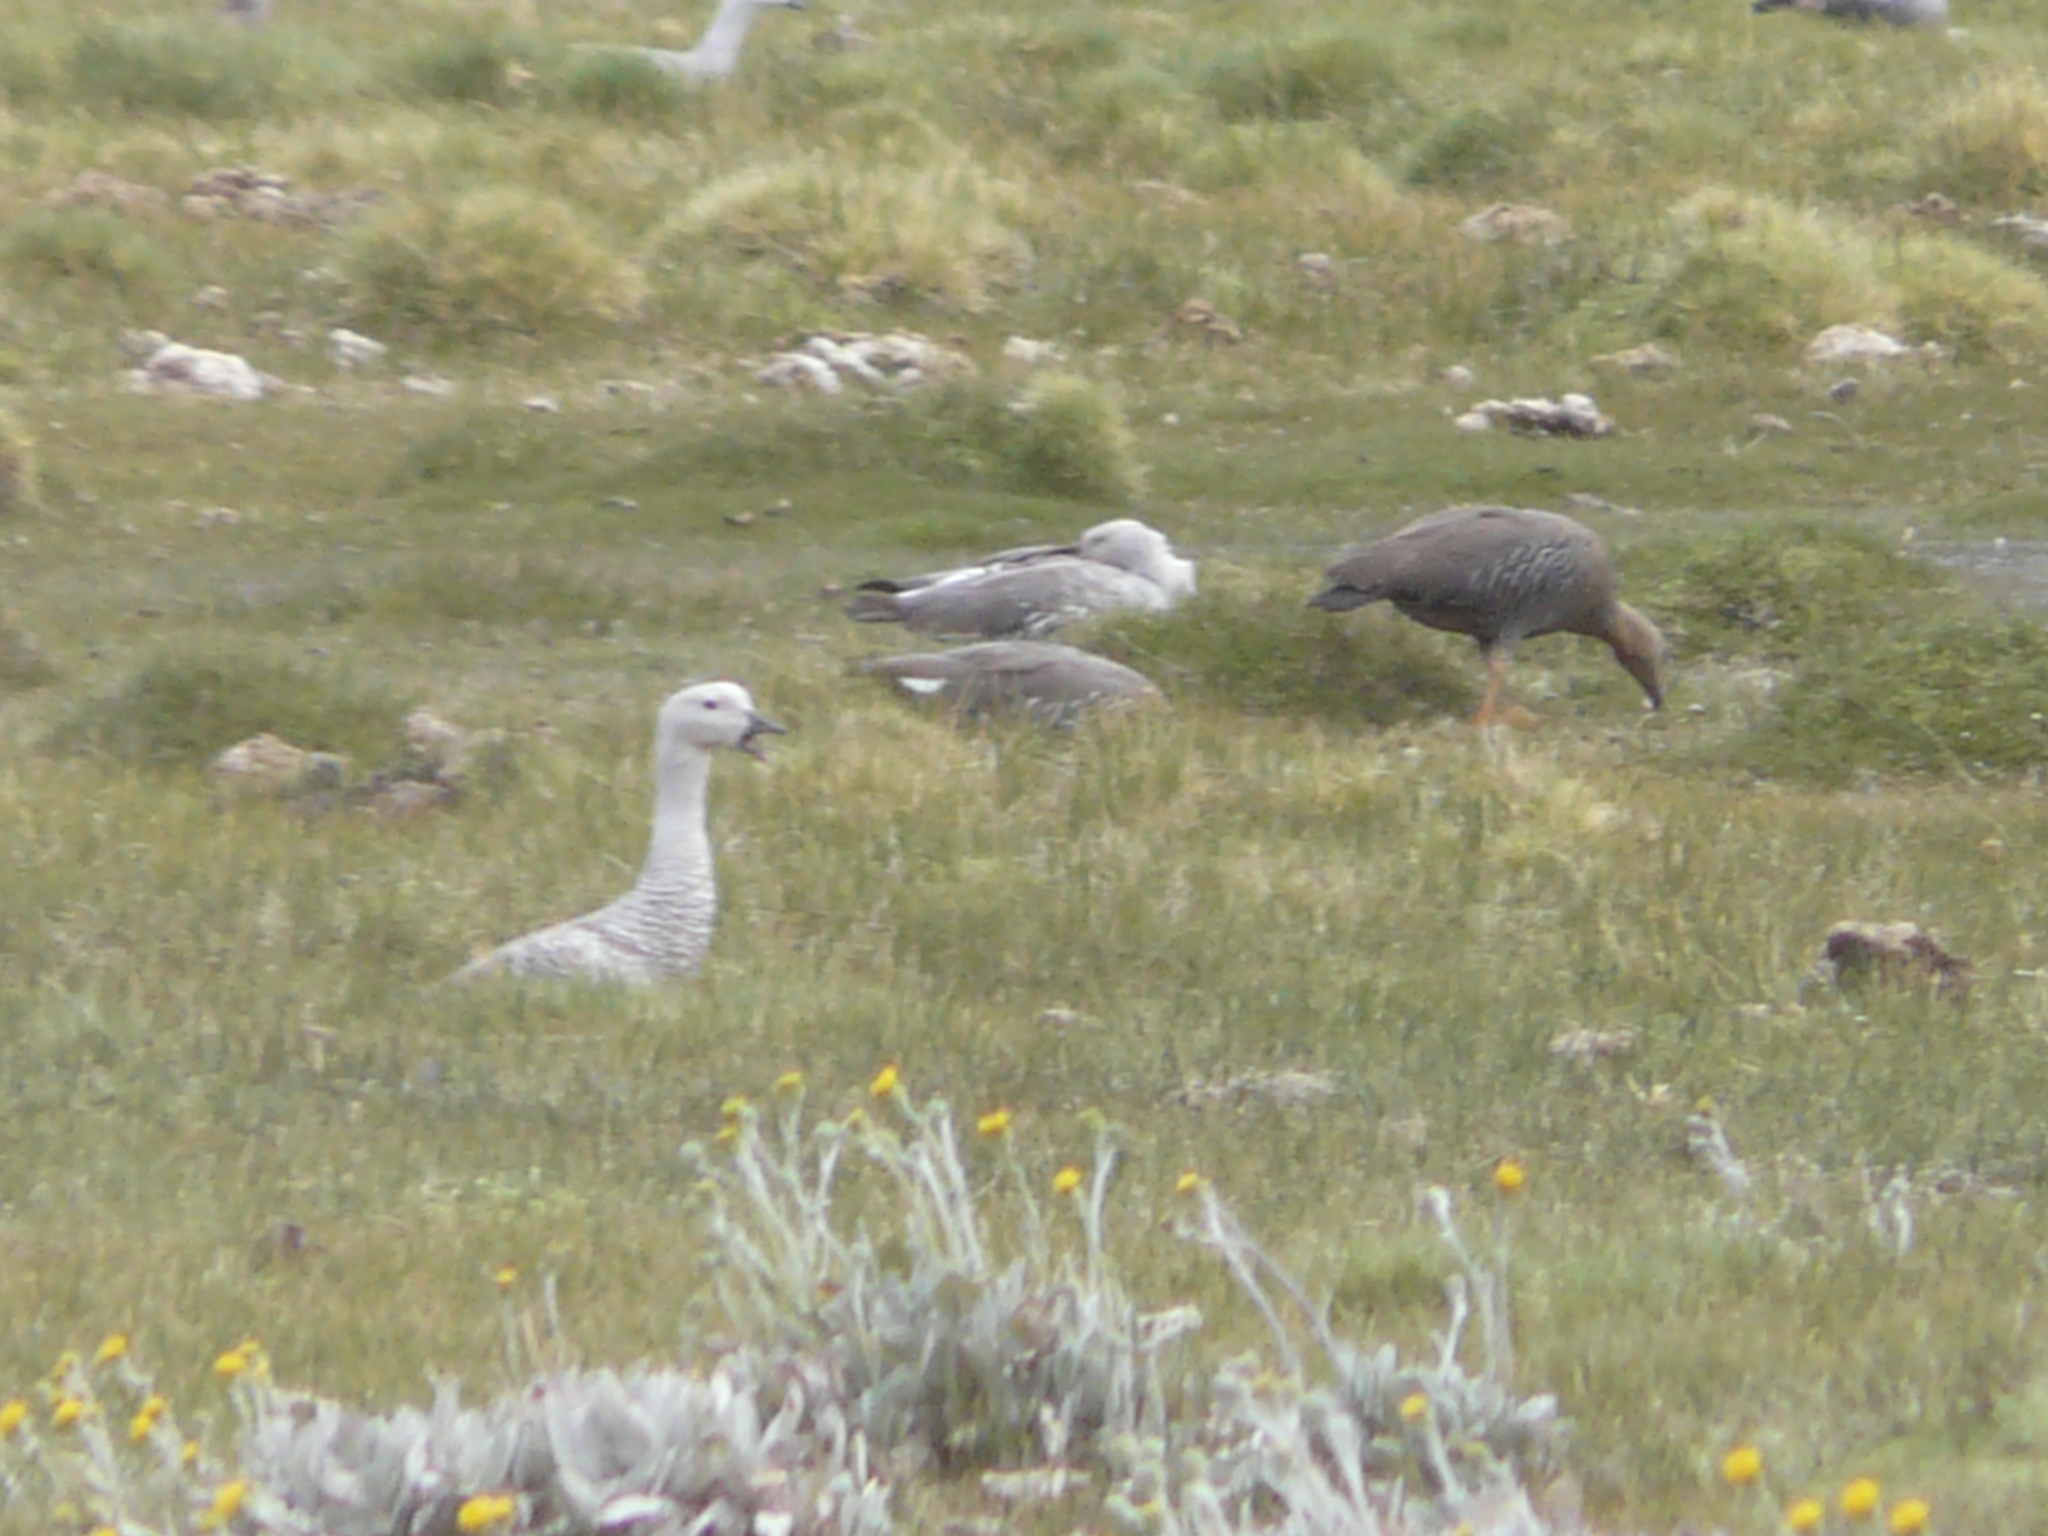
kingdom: Animalia
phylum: Chordata
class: Aves
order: Anseriformes
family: Anatidae
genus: Chloephaga
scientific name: Chloephaga picta
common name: Upland goose
